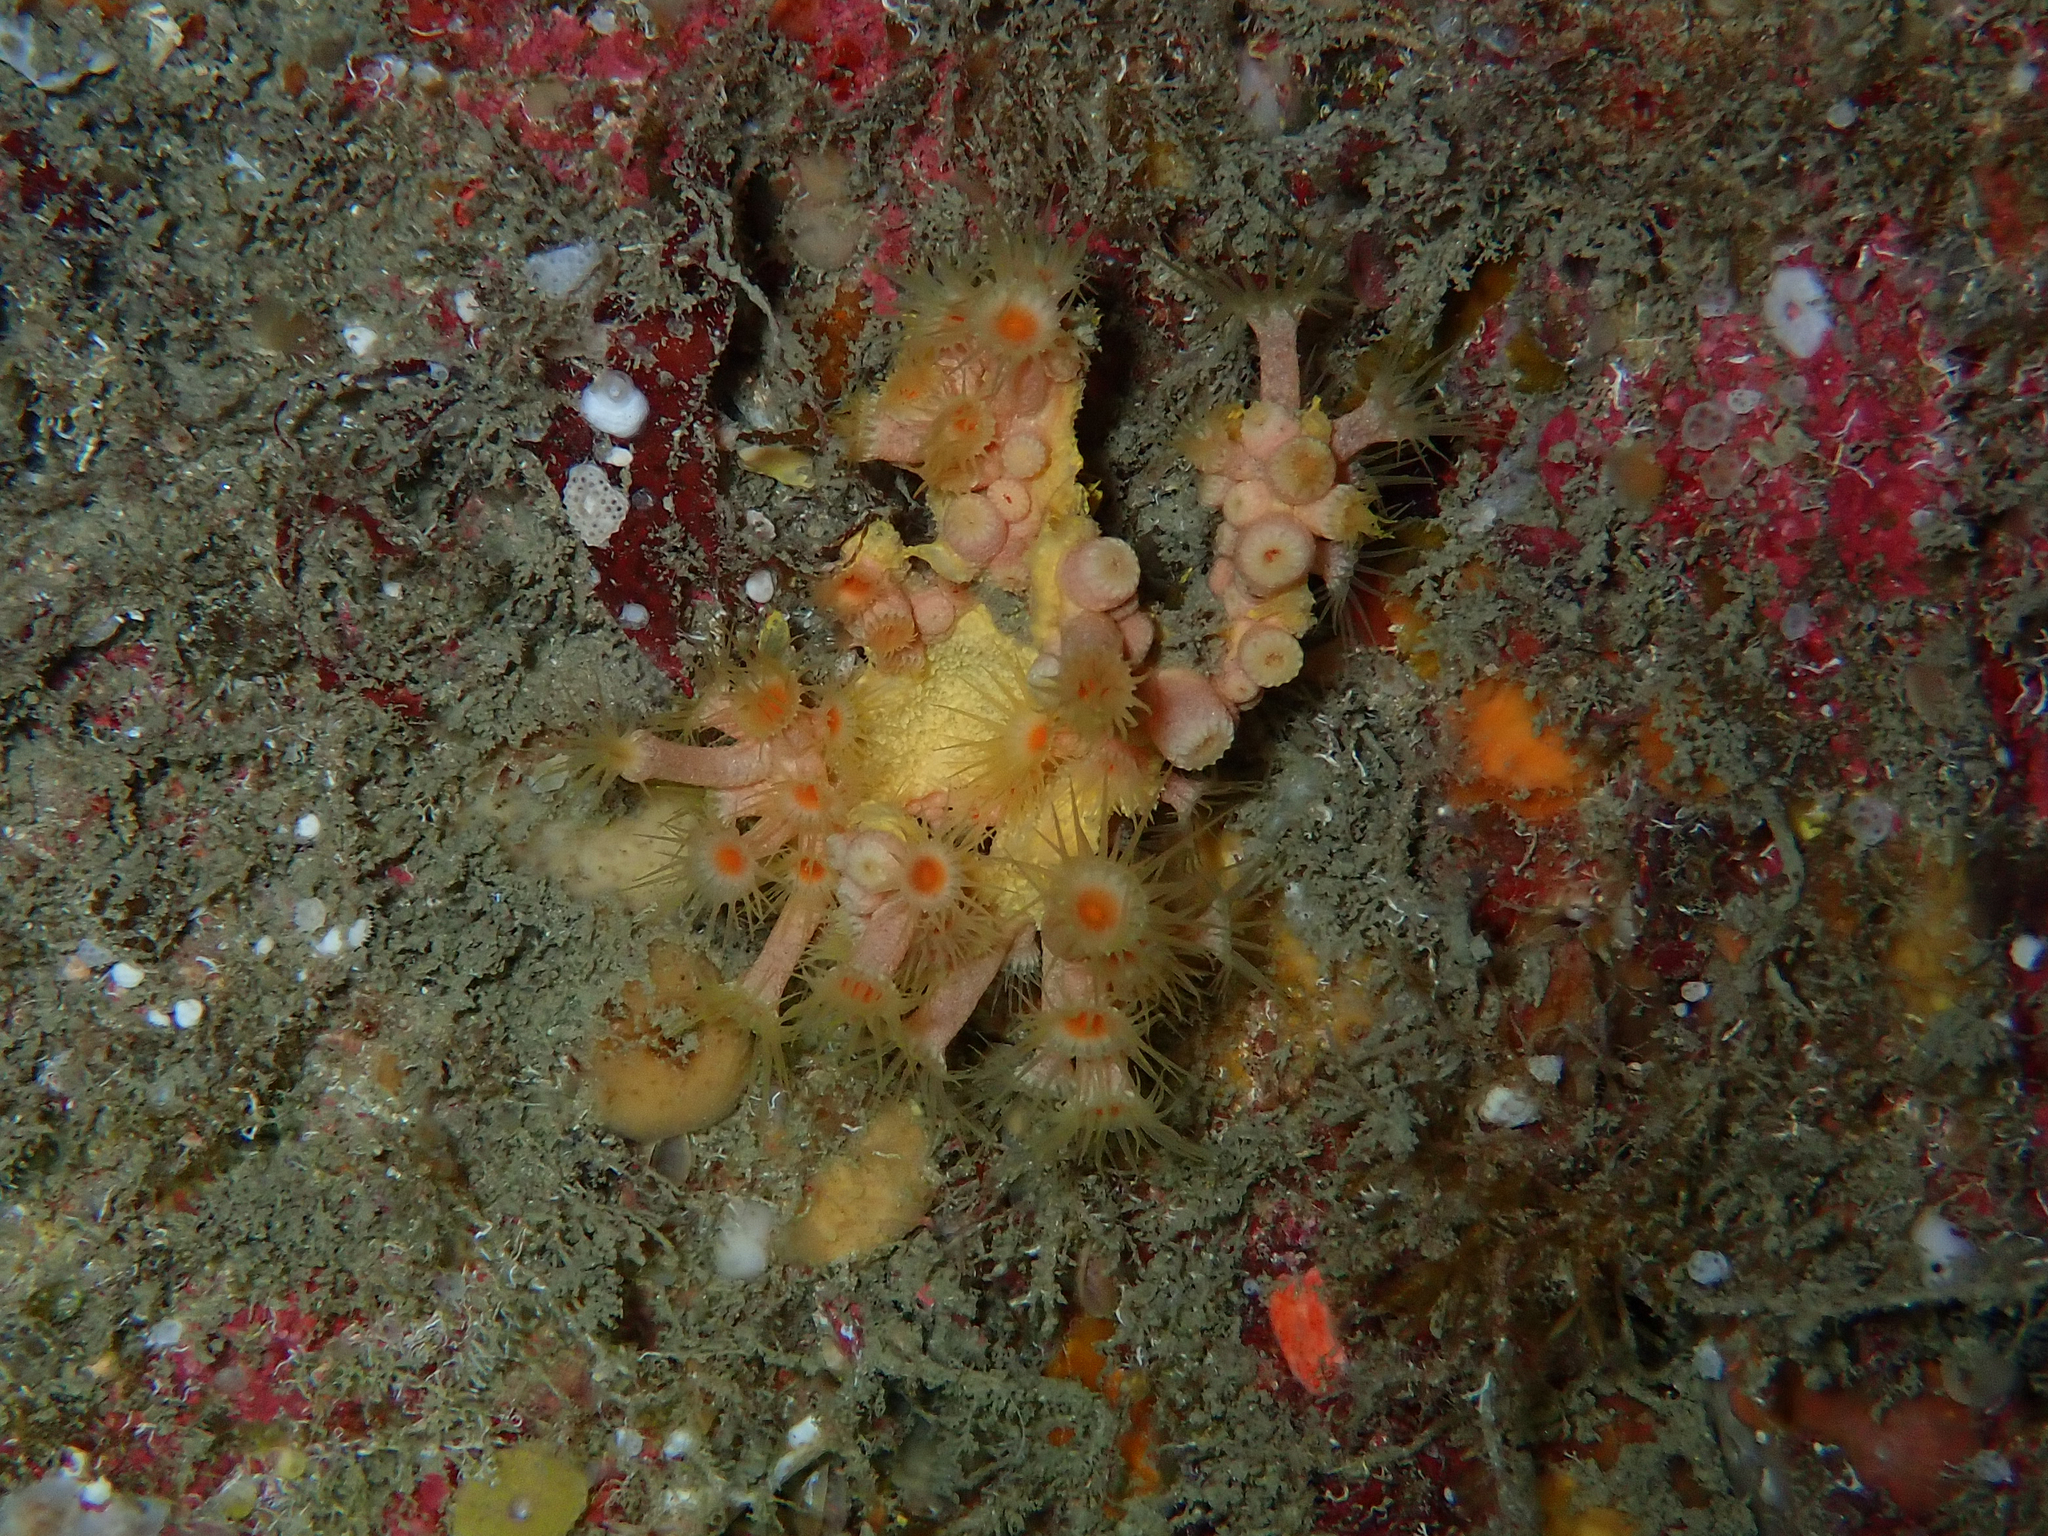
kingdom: Animalia
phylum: Cnidaria
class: Anthozoa
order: Zoantharia
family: Parazoanthidae
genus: Parazoanthus
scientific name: Parazoanthus axinellae
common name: Yellow cluster anemone
